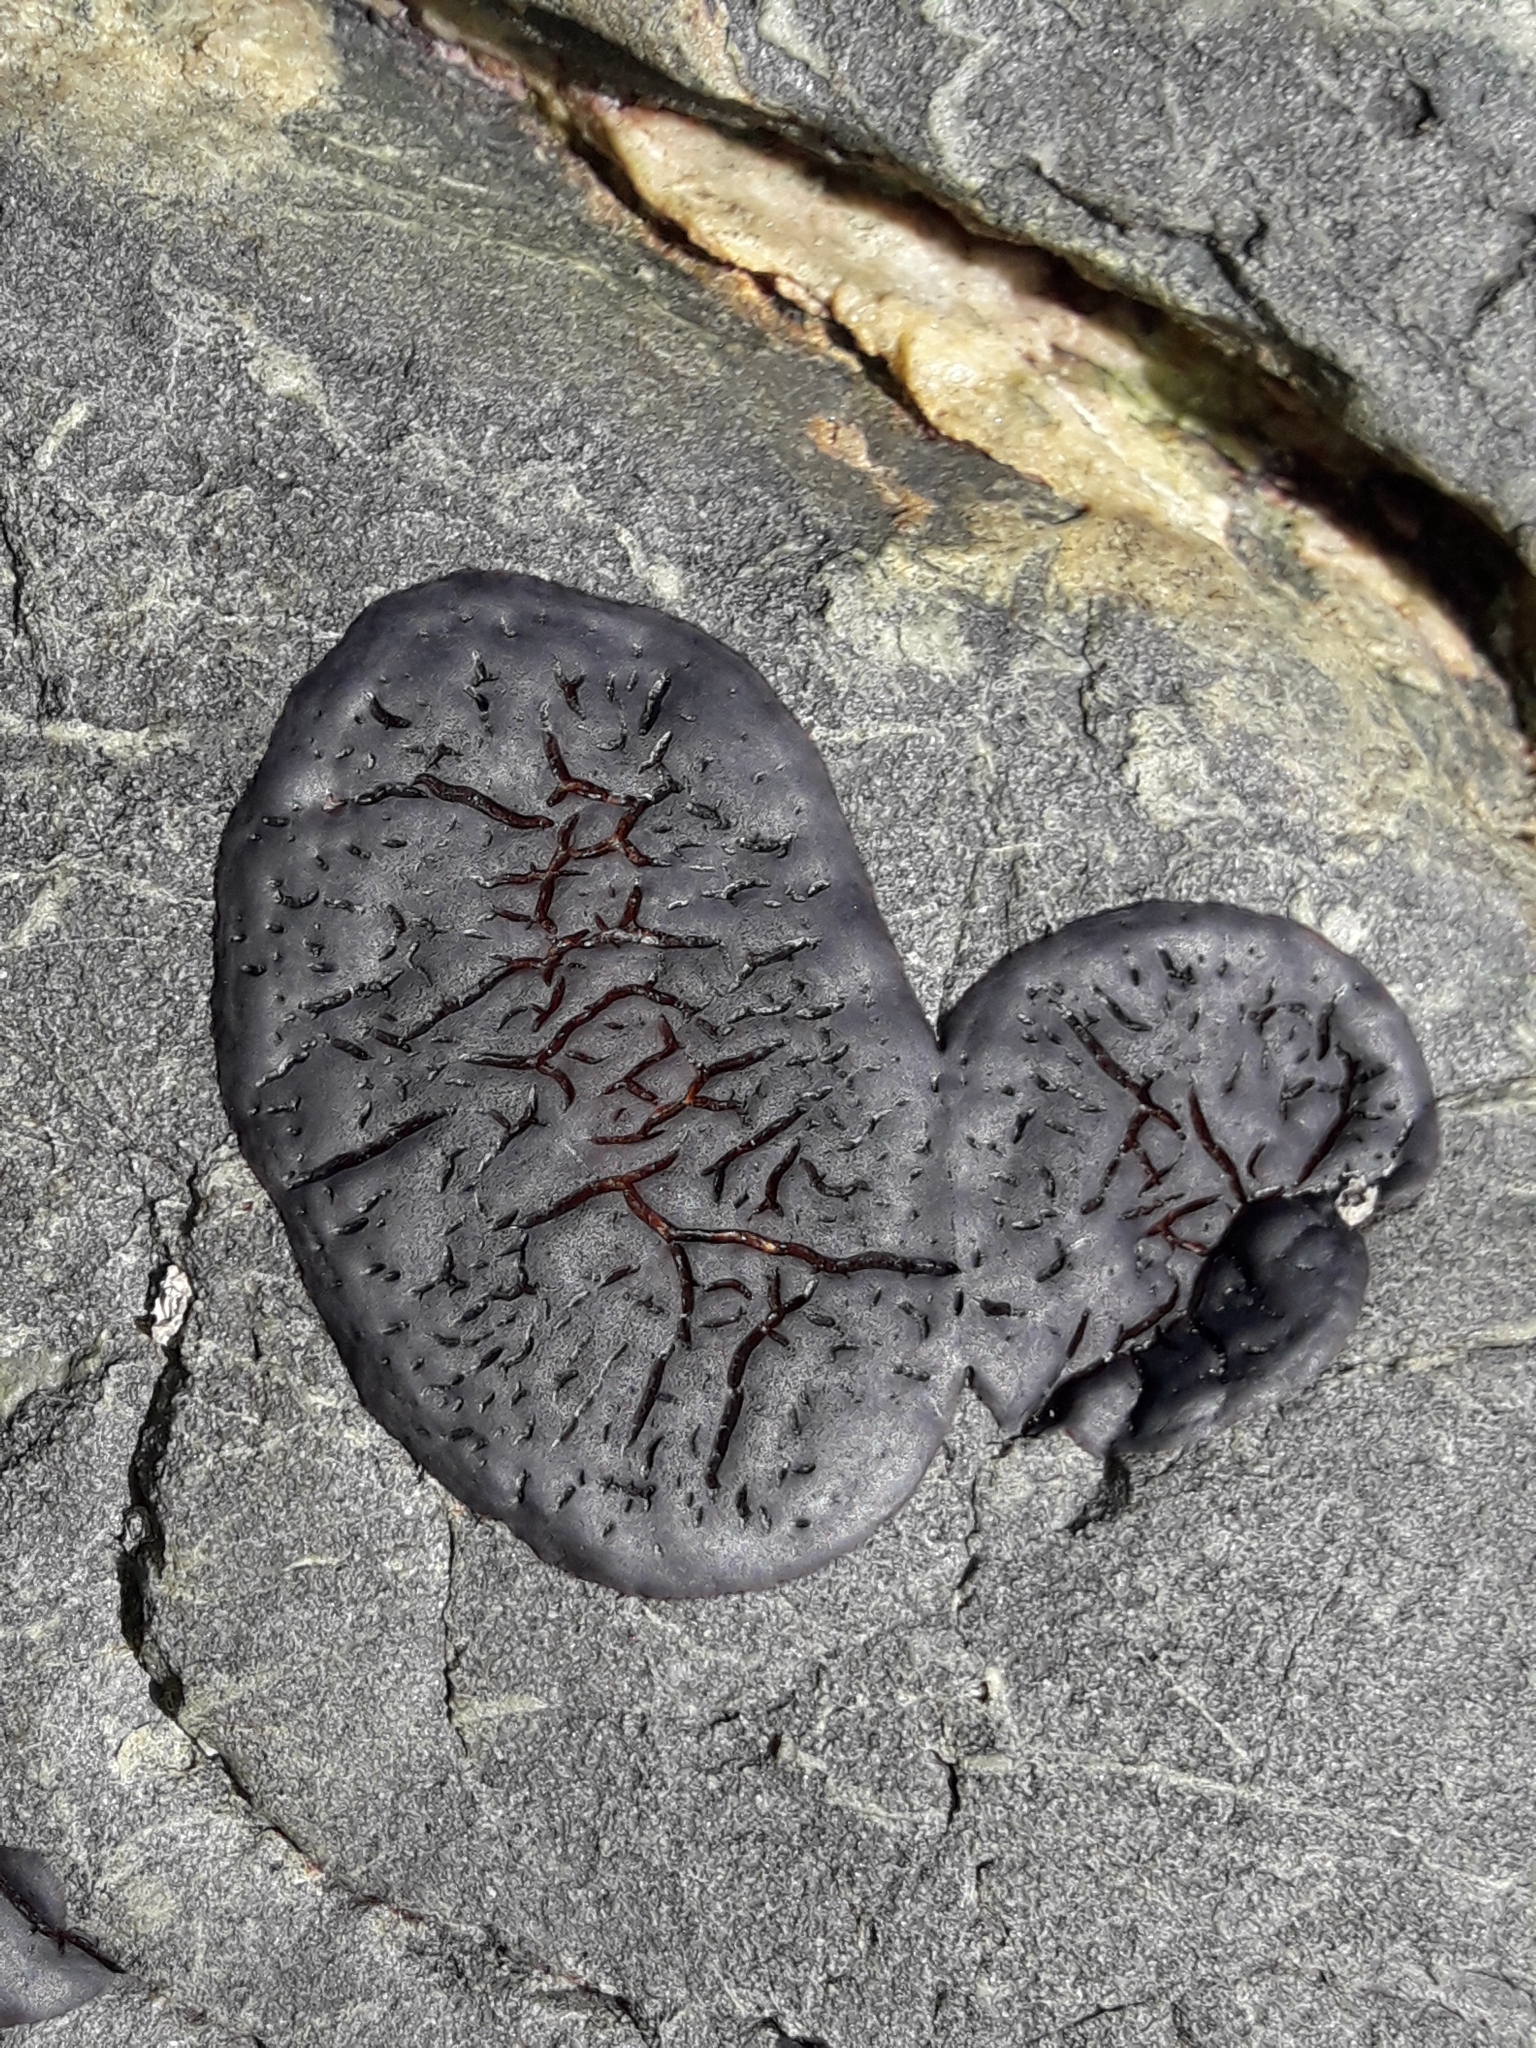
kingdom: Plantae
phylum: Rhodophyta
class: Florideophyceae
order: Hildenbrandiales
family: Hildenbrandiaceae
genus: Apophlaea
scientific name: Apophlaea
